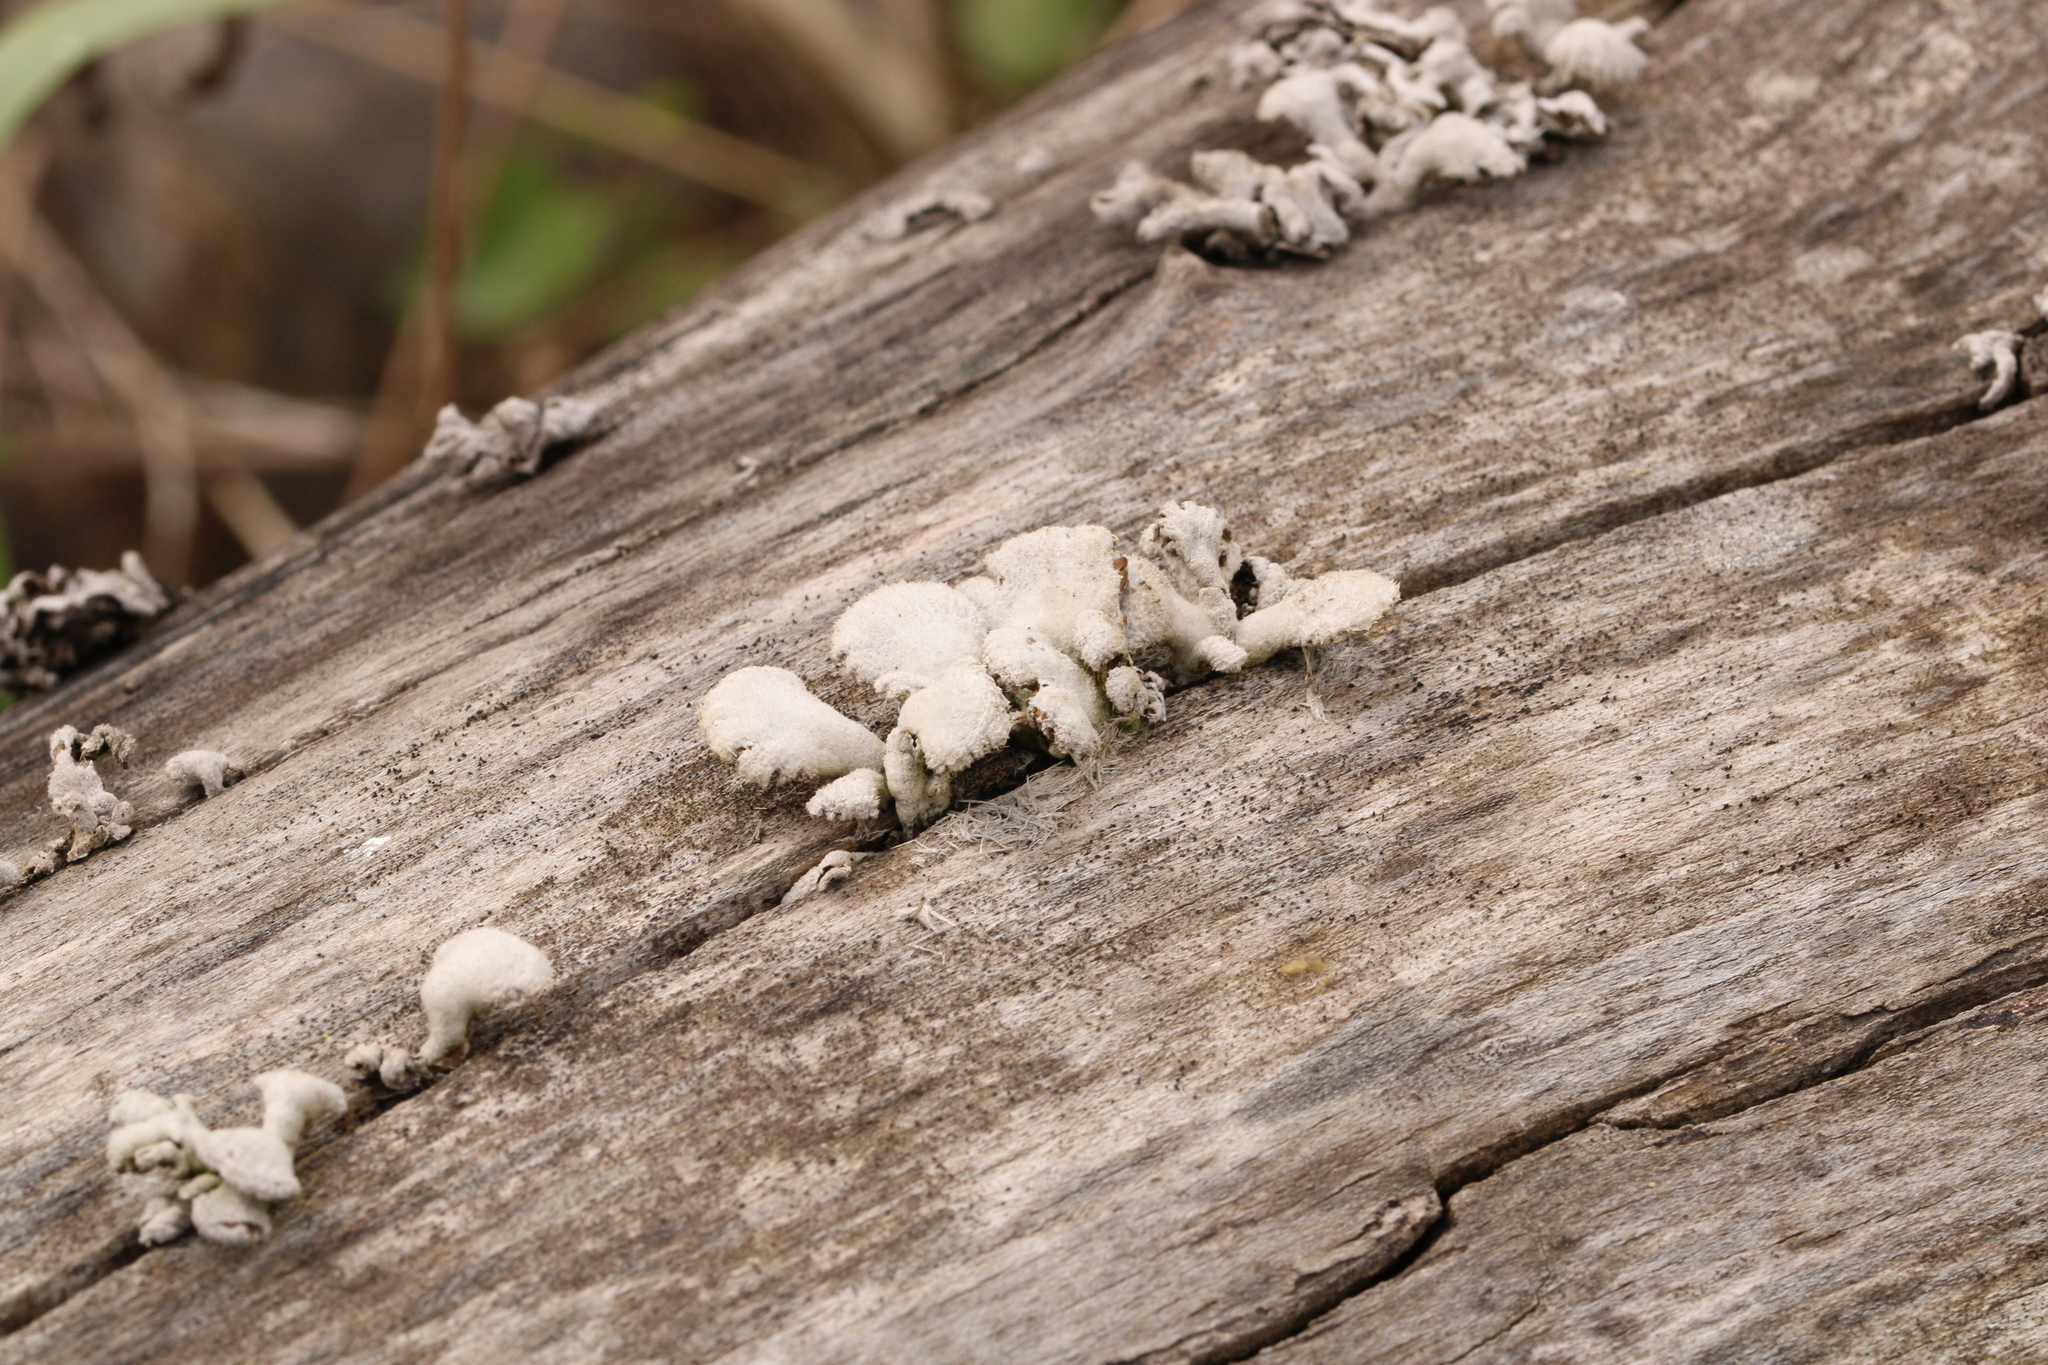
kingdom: Fungi
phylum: Basidiomycota
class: Agaricomycetes
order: Agaricales
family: Schizophyllaceae
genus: Schizophyllum
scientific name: Schizophyllum commune
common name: Common porecrust
